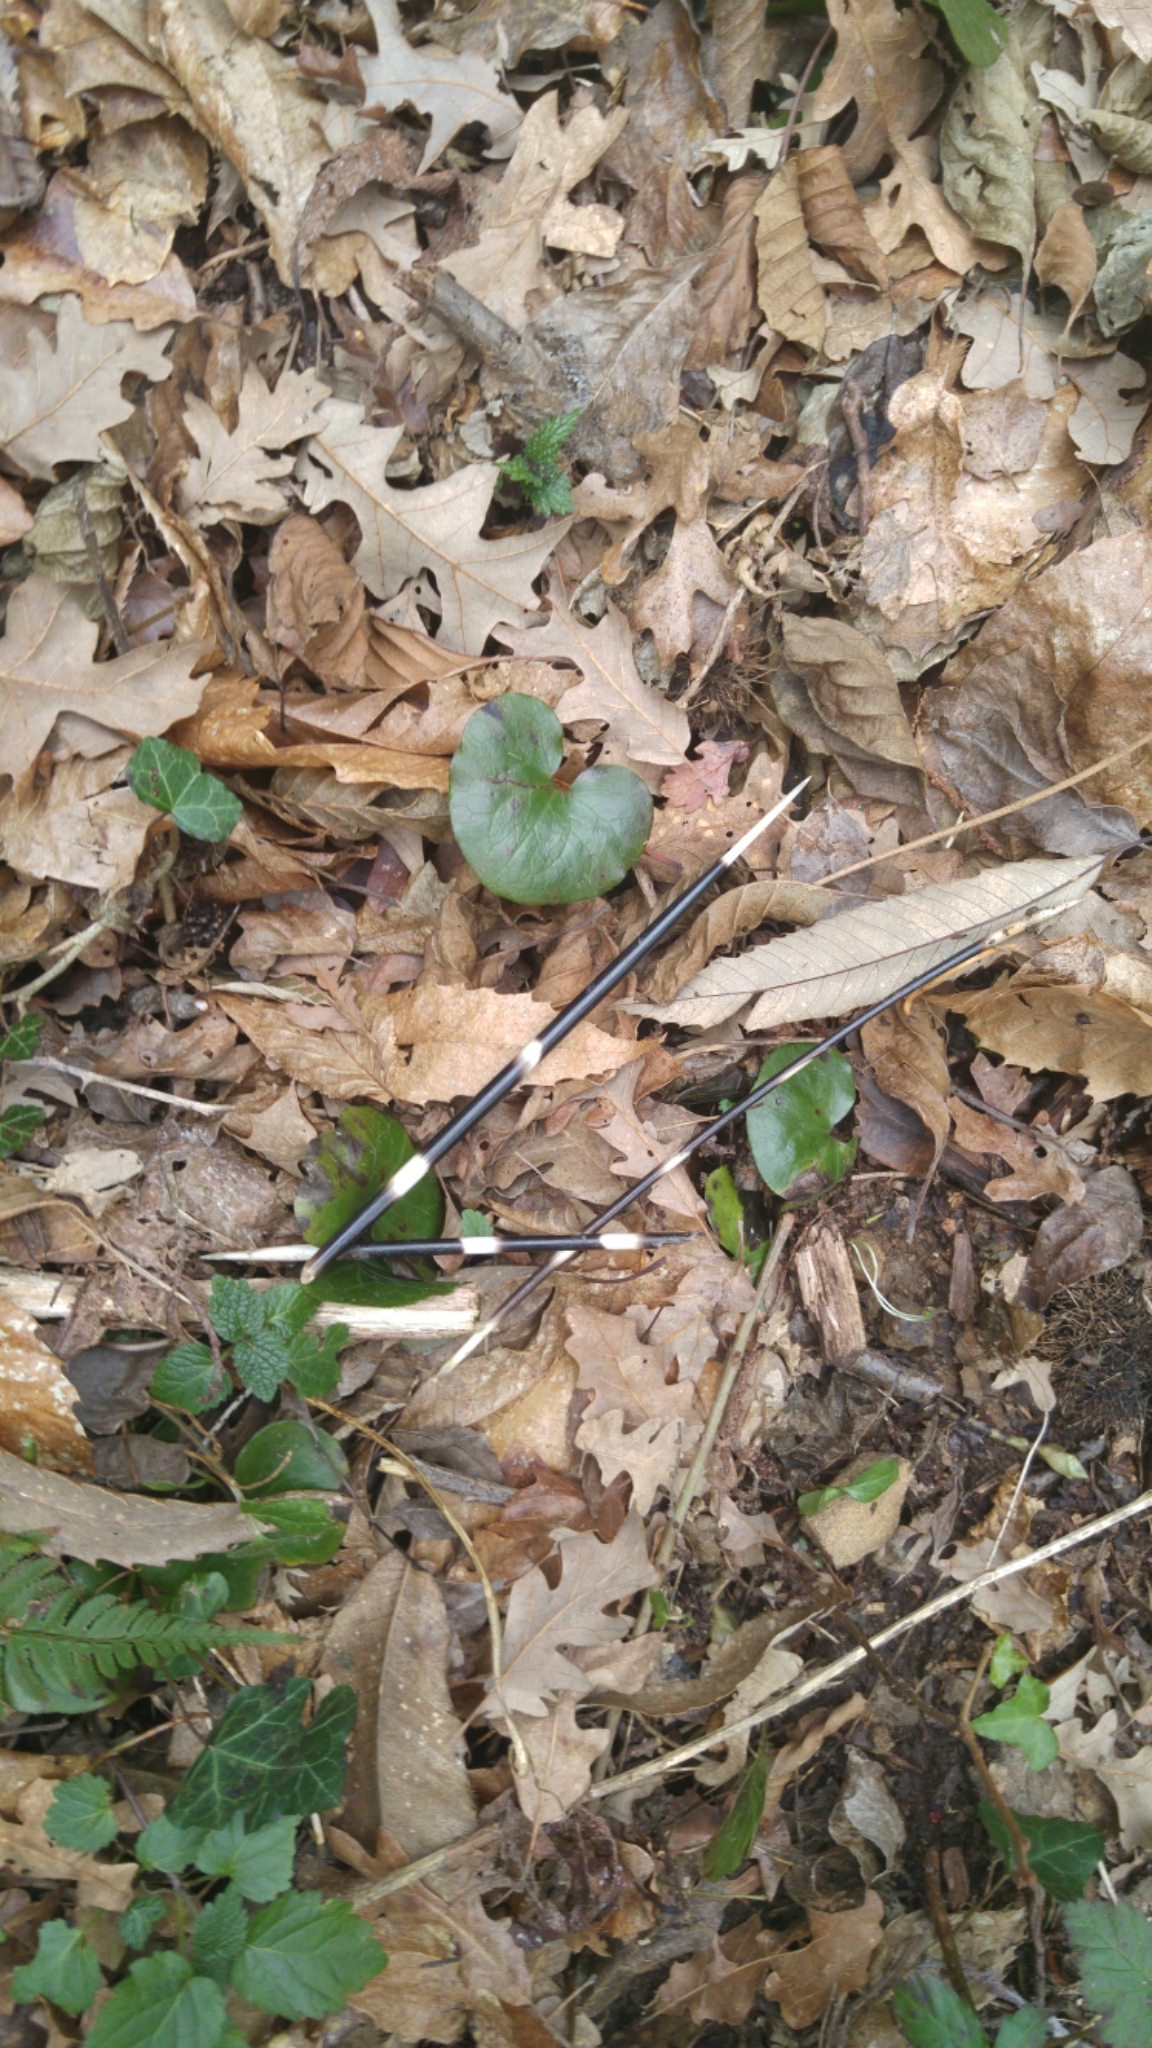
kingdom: Animalia
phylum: Chordata
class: Mammalia
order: Rodentia
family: Hystricidae
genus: Hystrix
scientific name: Hystrix cristata
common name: Crested porcupine
